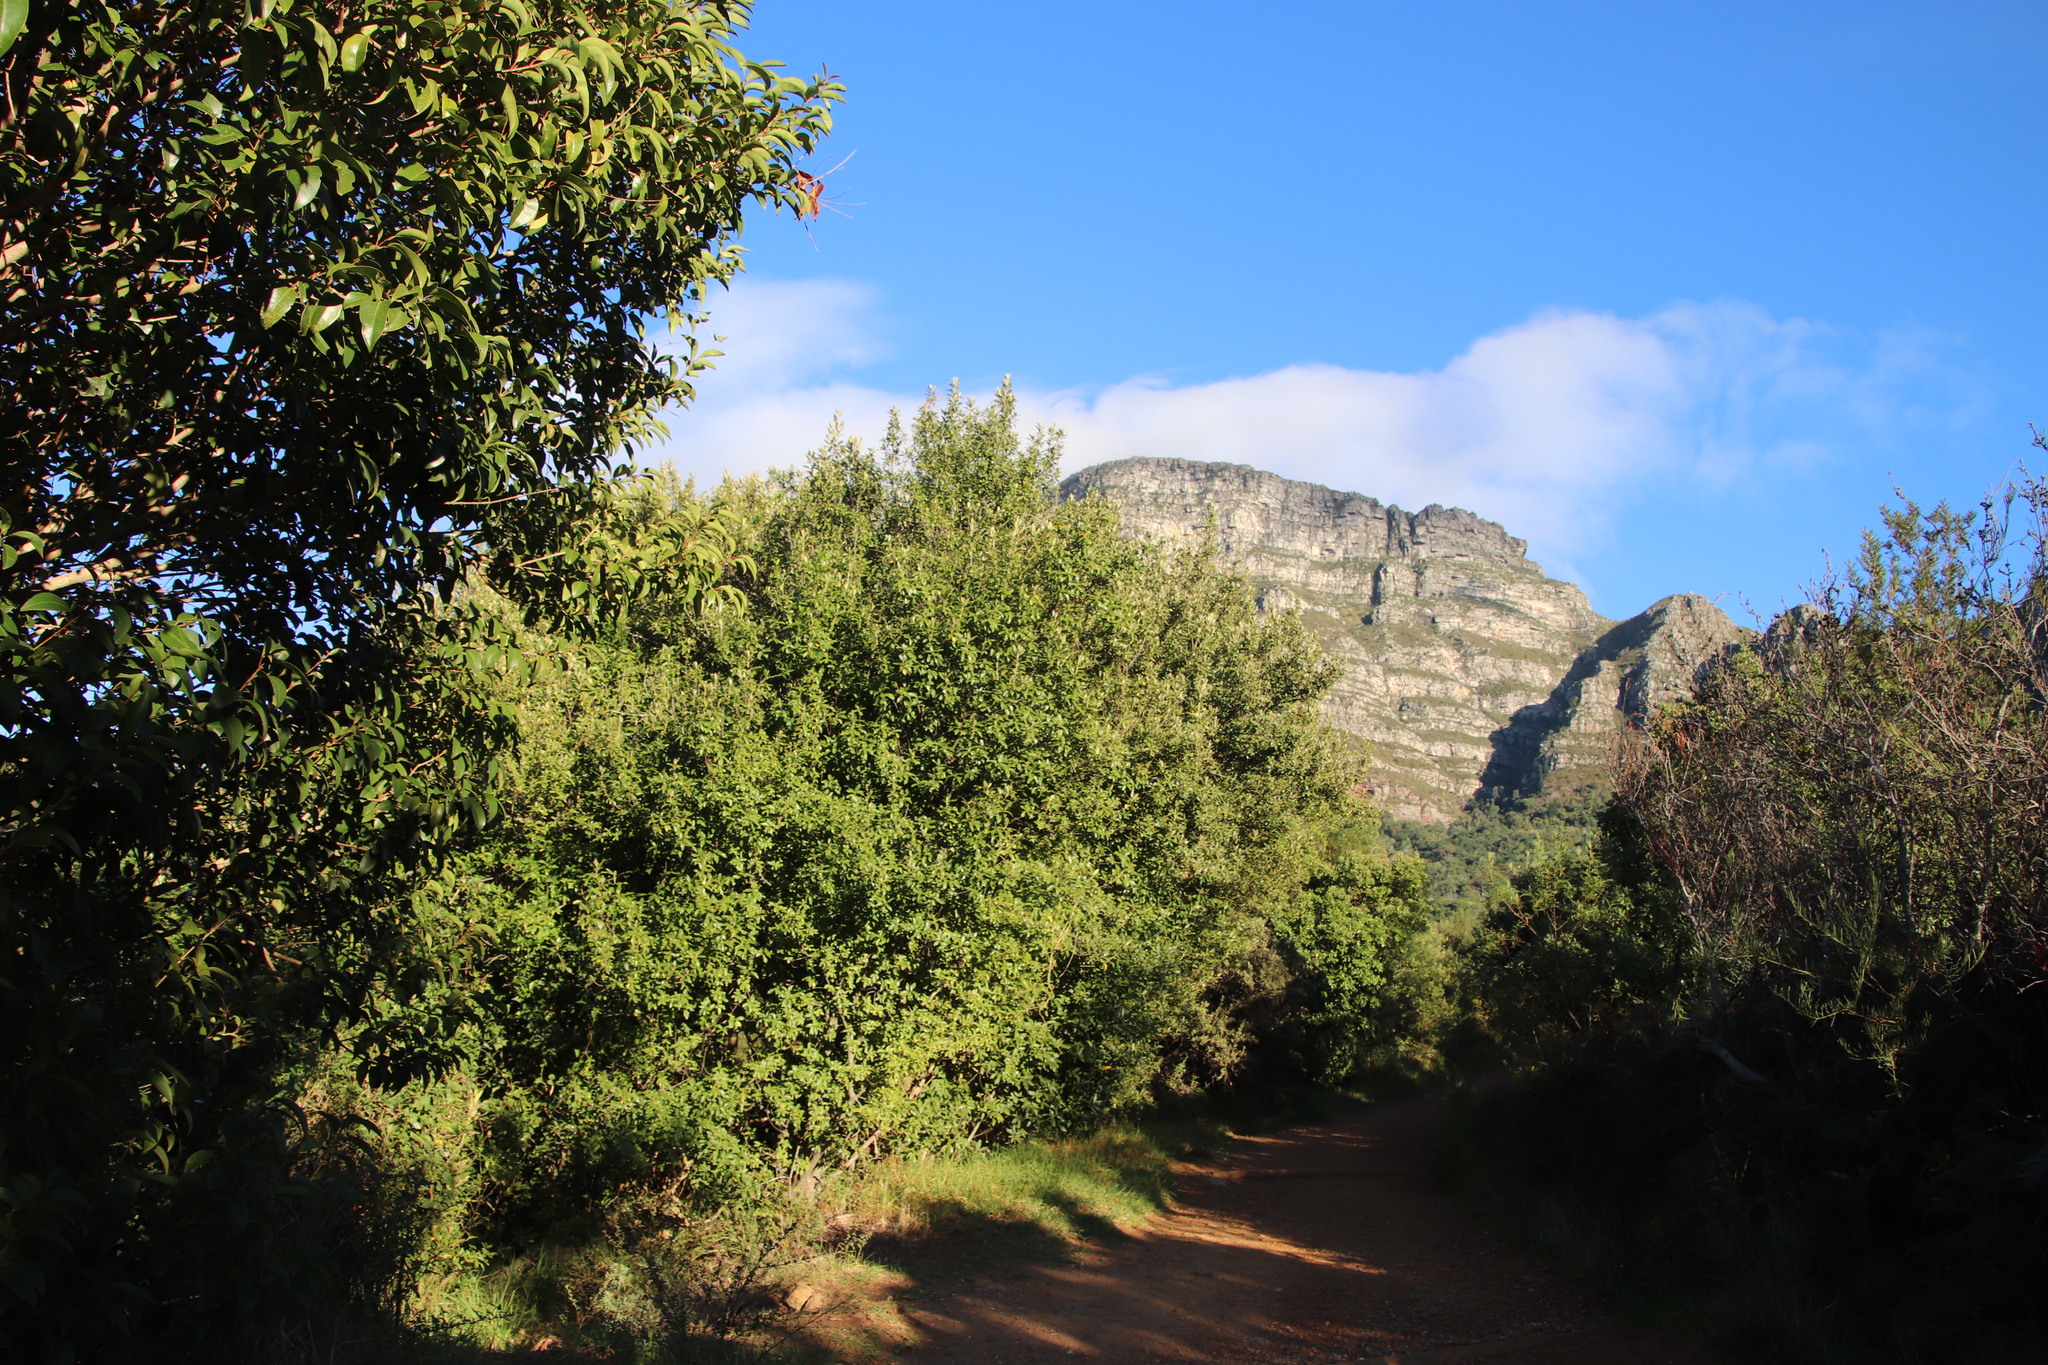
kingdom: Plantae
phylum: Tracheophyta
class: Magnoliopsida
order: Malpighiales
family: Achariaceae
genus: Kiggelaria
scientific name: Kiggelaria africana
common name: Wild peach
